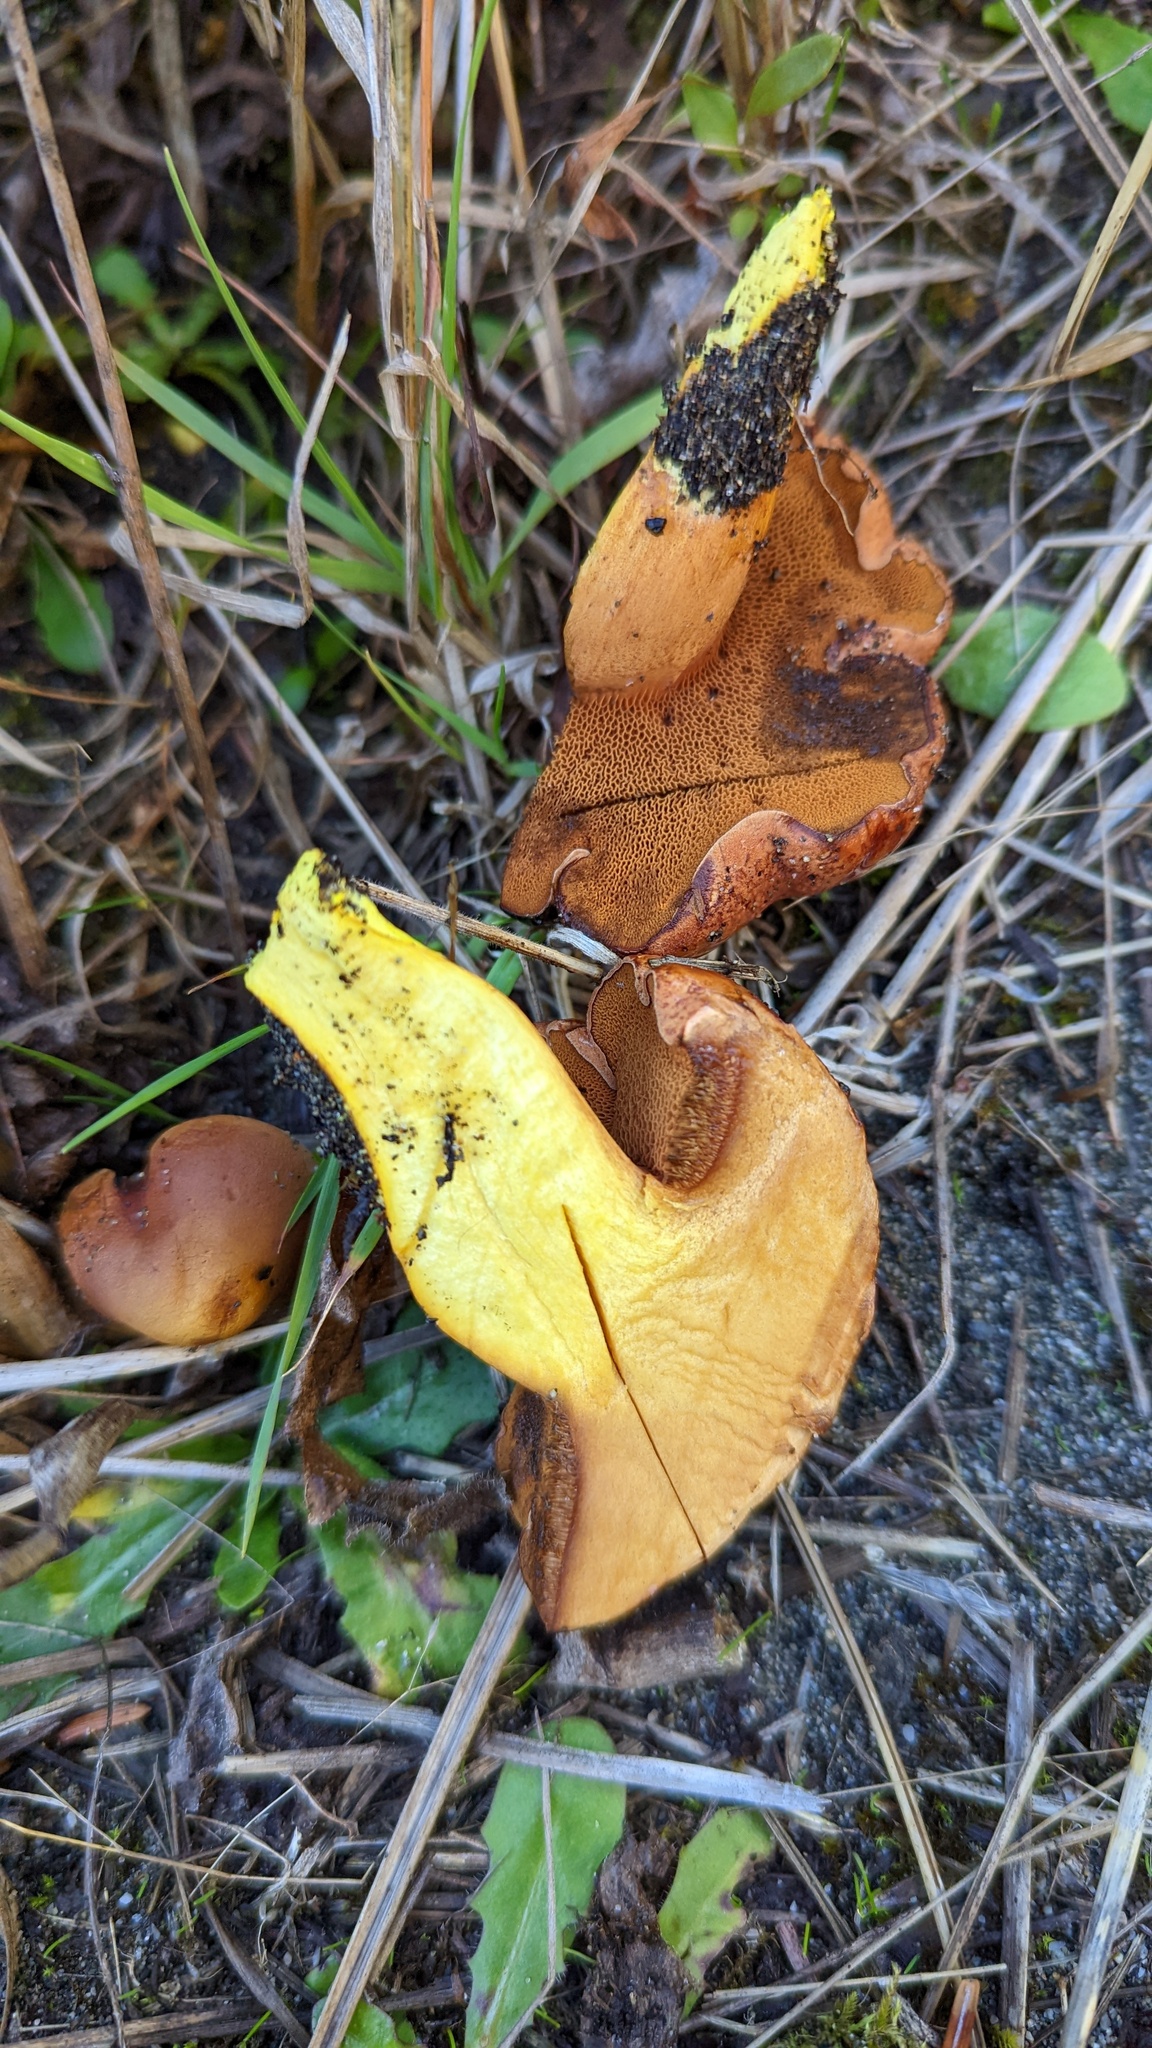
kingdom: Fungi
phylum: Basidiomycota
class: Agaricomycetes
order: Boletales
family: Boletaceae
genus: Chalciporus
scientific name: Chalciporus piperatus
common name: Peppery bolete
